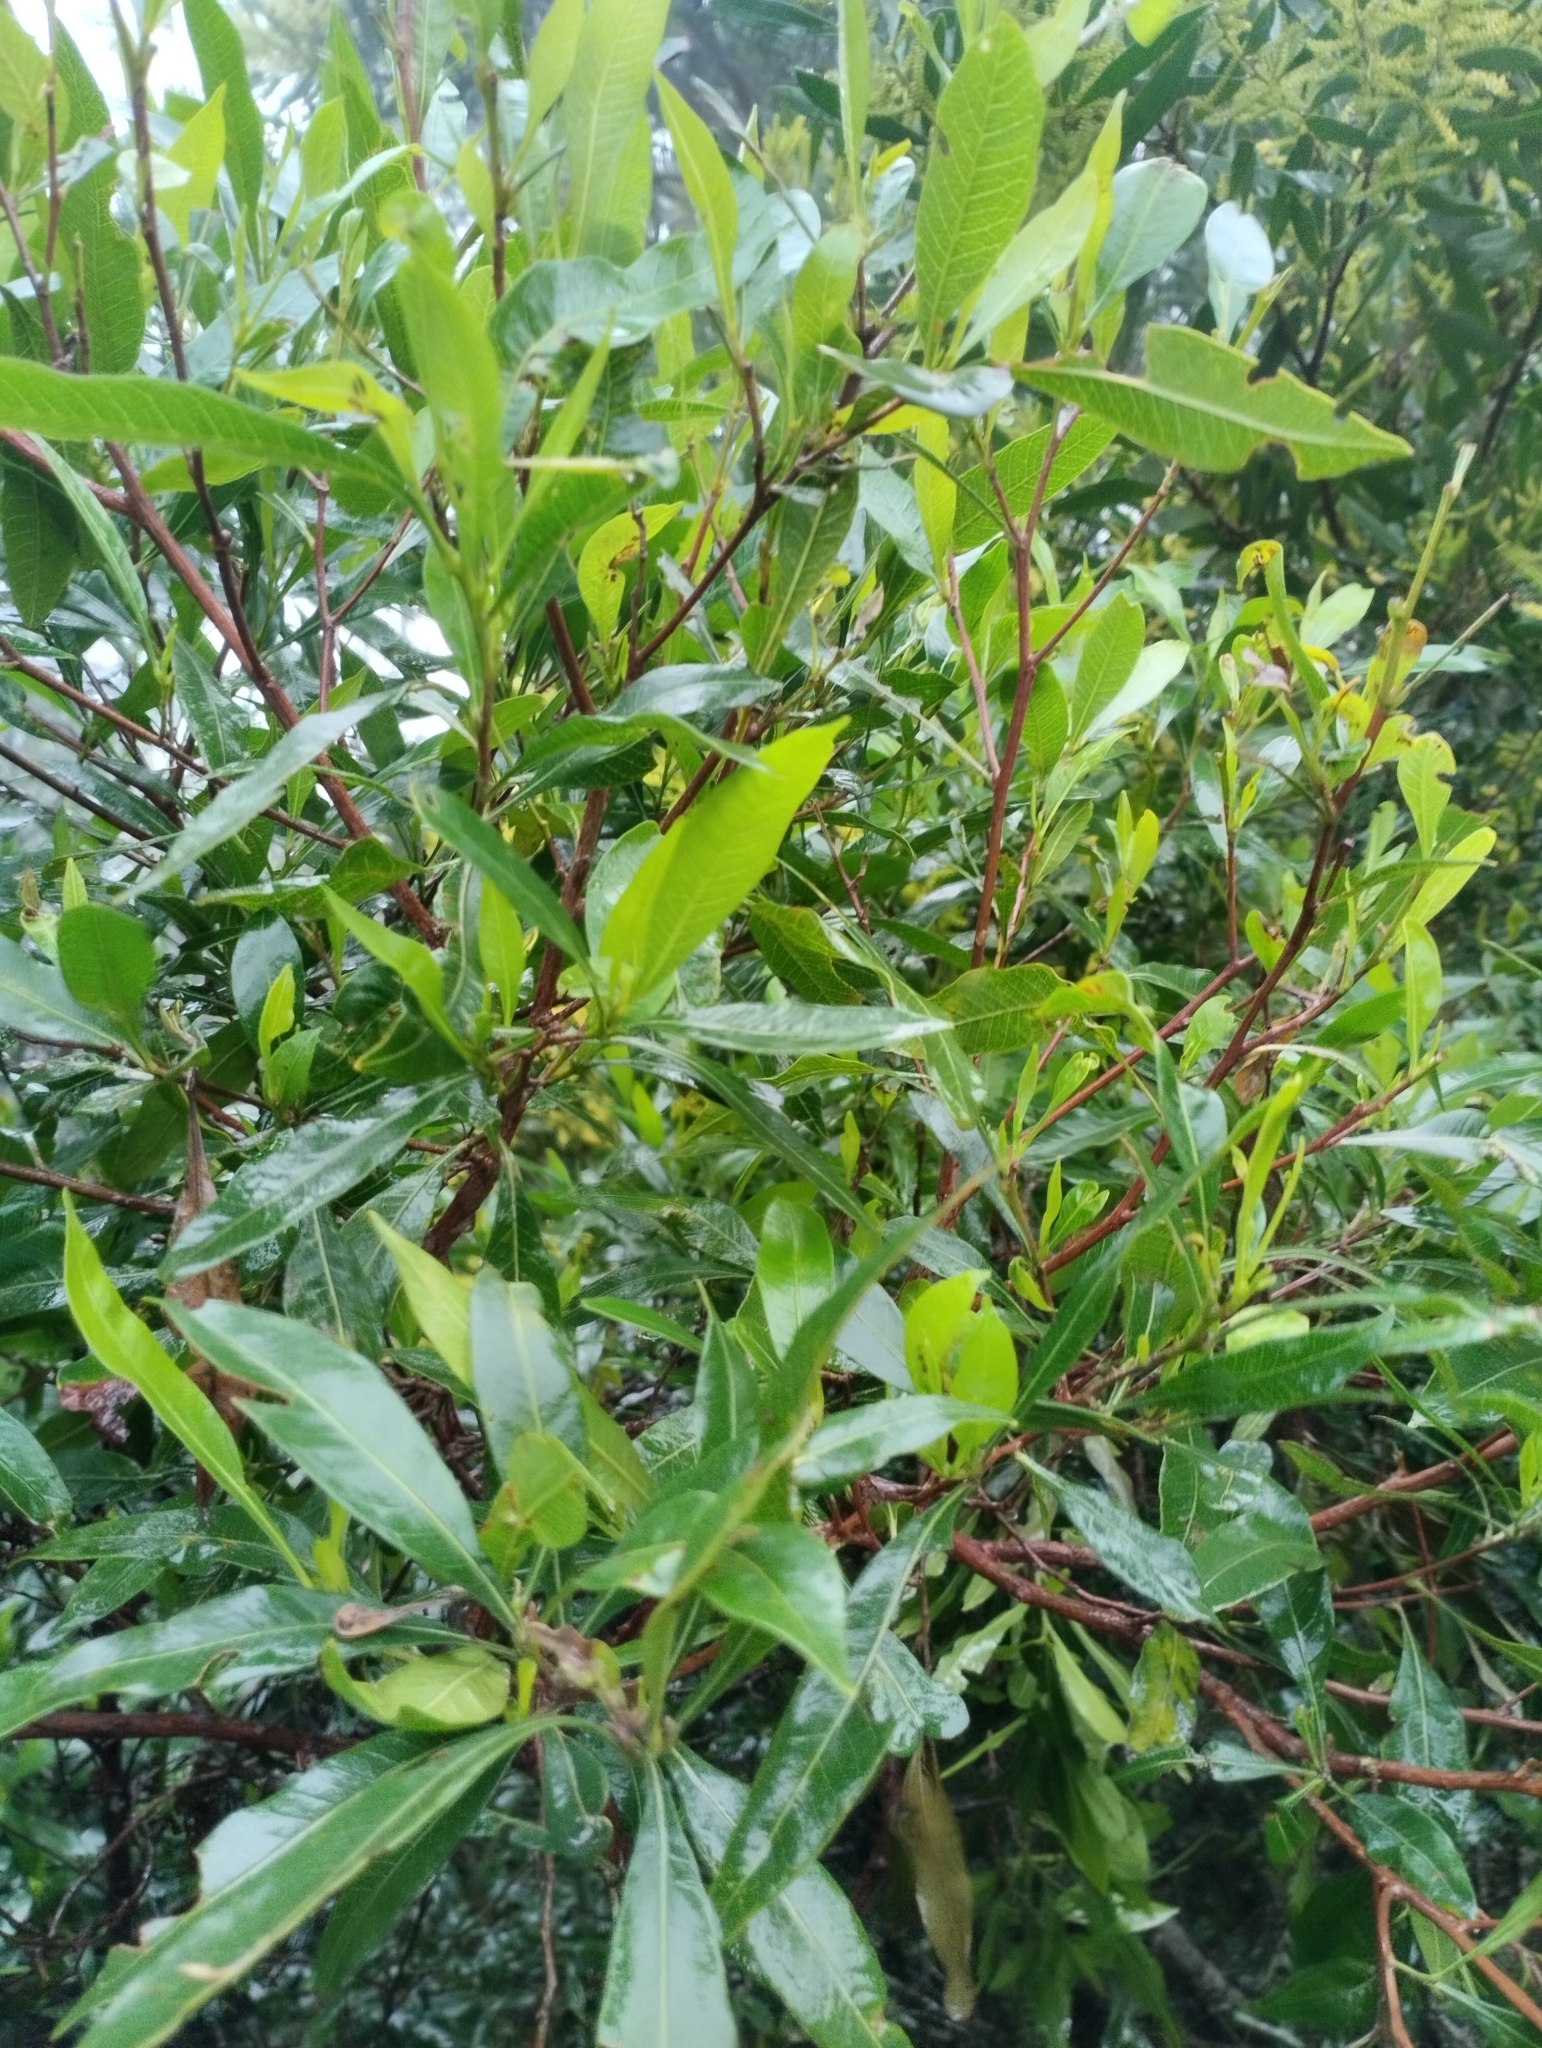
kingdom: Plantae
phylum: Tracheophyta
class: Magnoliopsida
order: Sapindales
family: Sapindaceae
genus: Dodonaea
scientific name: Dodonaea viscosa
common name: Hopbush
